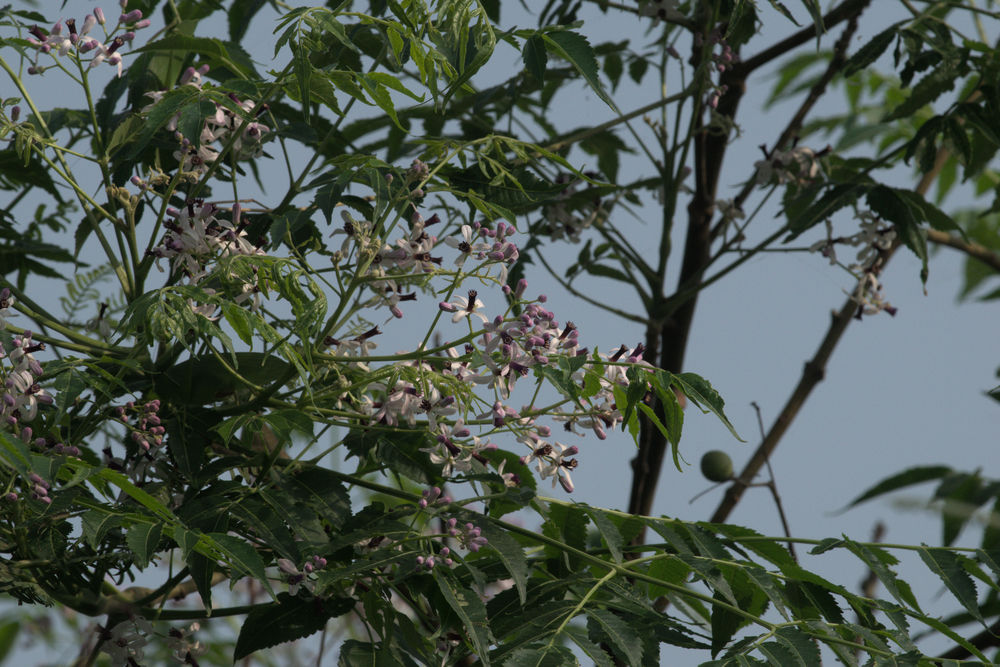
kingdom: Plantae
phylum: Tracheophyta
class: Magnoliopsida
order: Sapindales
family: Meliaceae
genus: Melia
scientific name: Melia azedarach
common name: Chinaberrytree
